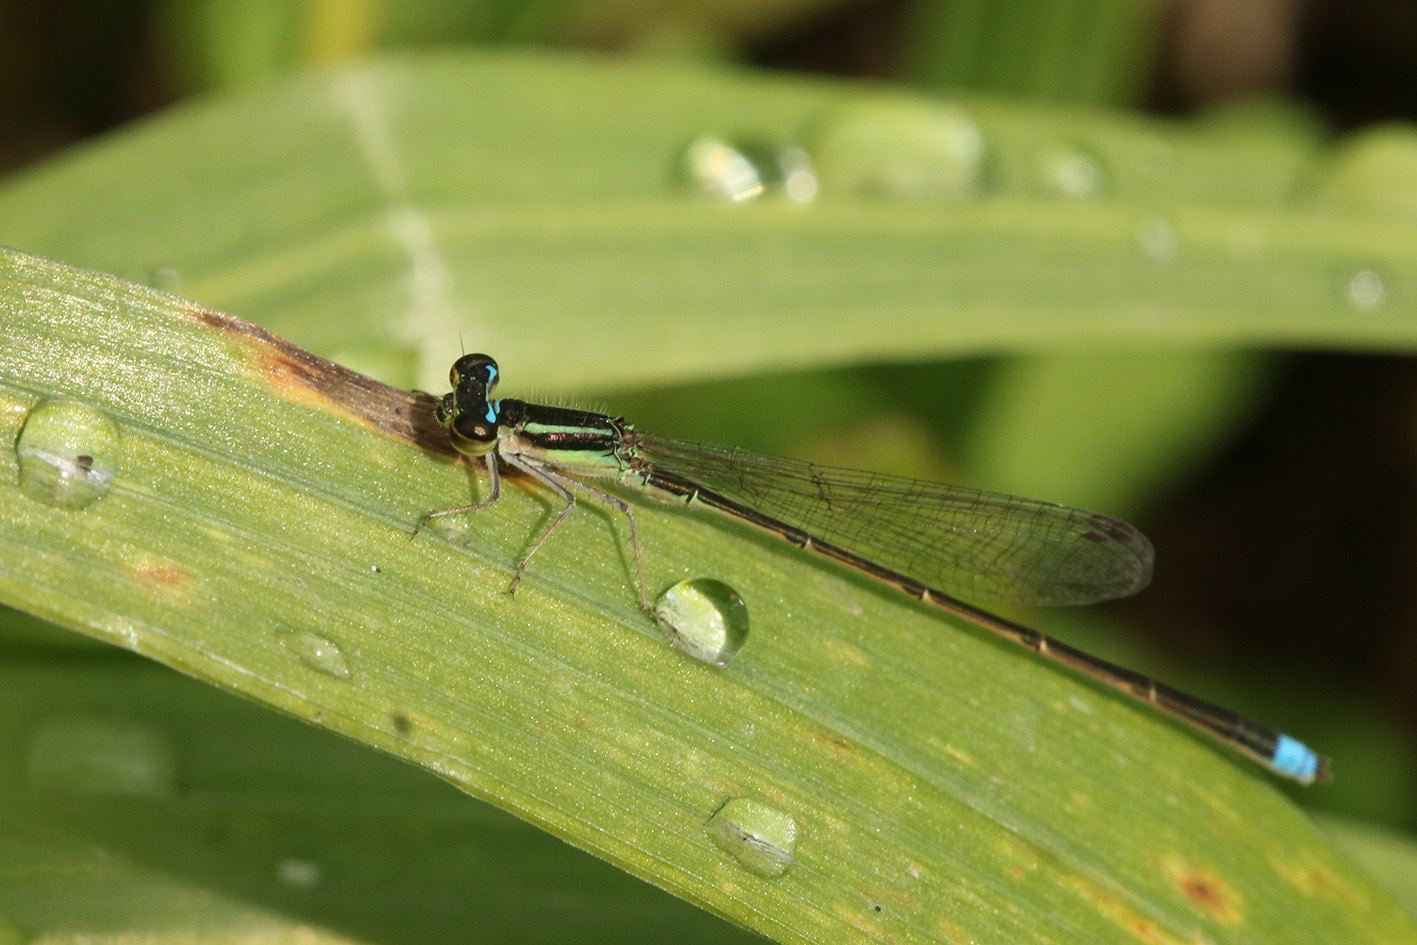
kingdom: Animalia
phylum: Arthropoda
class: Insecta
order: Odonata
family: Coenagrionidae
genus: Argentagrion
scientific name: Argentagrion ambiguum
